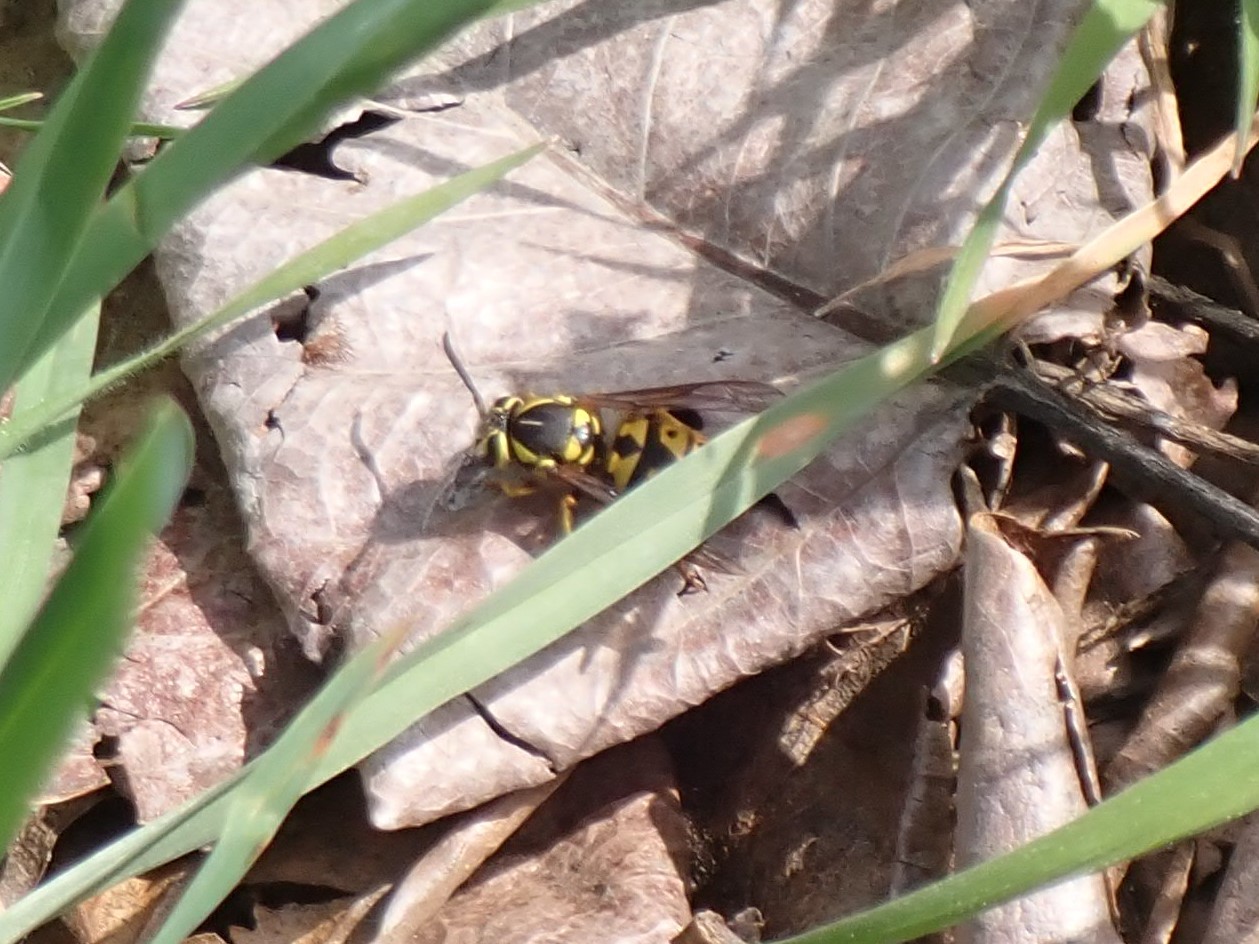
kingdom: Animalia
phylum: Arthropoda
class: Insecta
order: Hymenoptera
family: Vespidae
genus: Vespula
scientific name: Vespula pensylvanica
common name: Western yellowjacket
